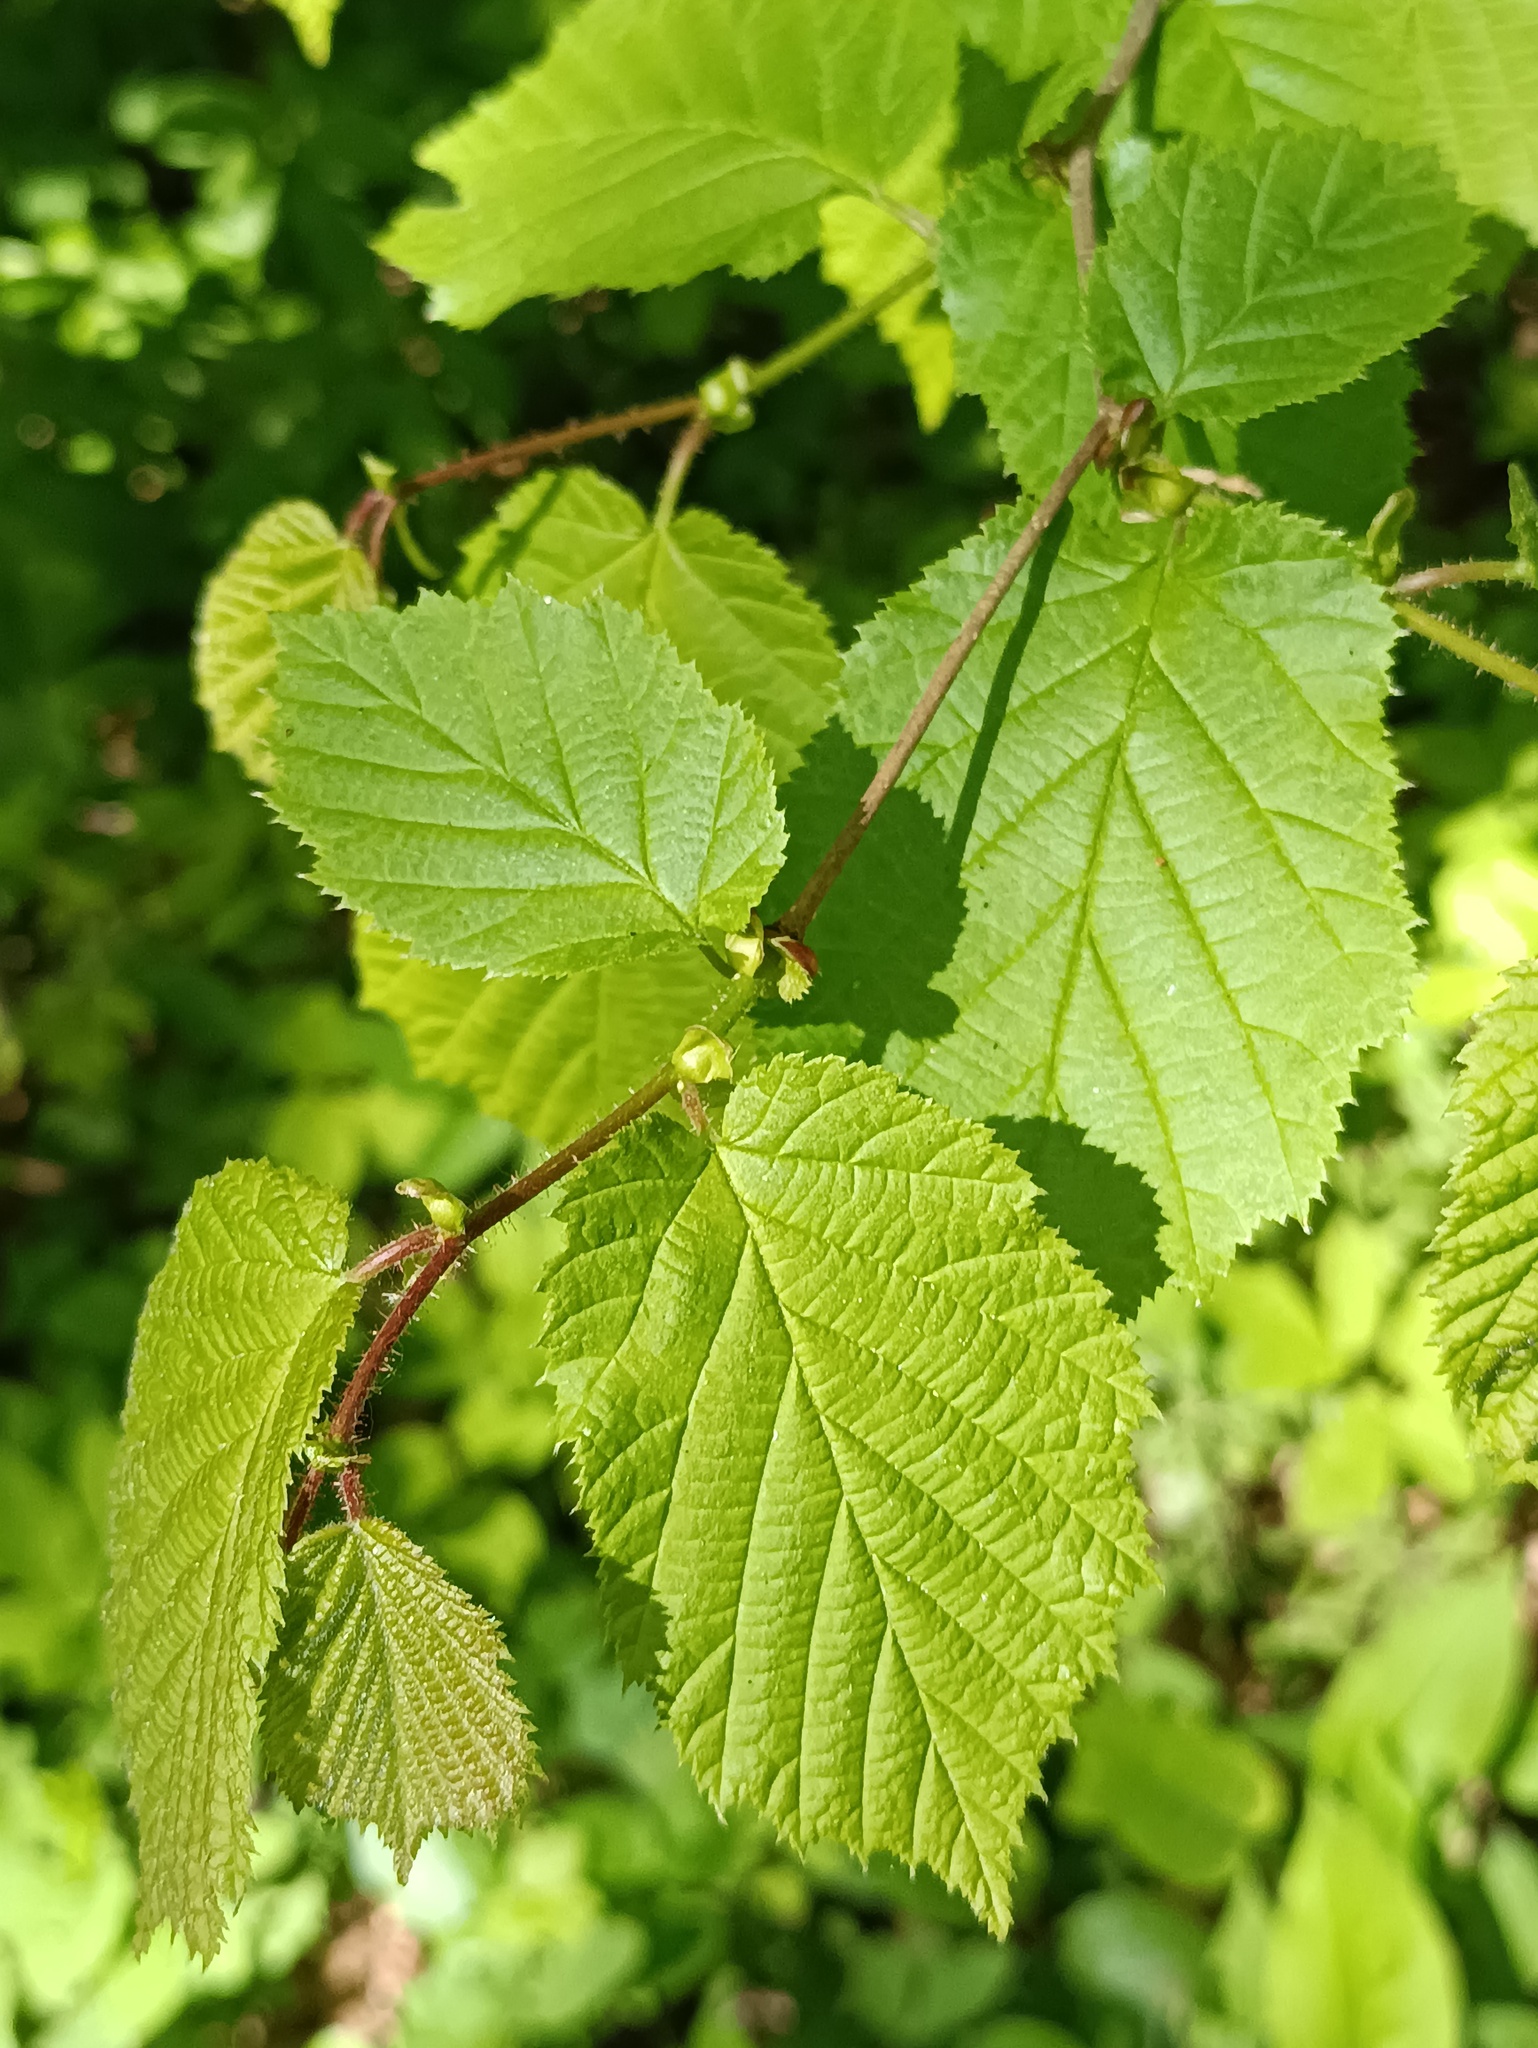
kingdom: Plantae
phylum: Tracheophyta
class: Magnoliopsida
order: Fagales
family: Betulaceae
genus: Corylus
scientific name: Corylus avellana
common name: European hazel
